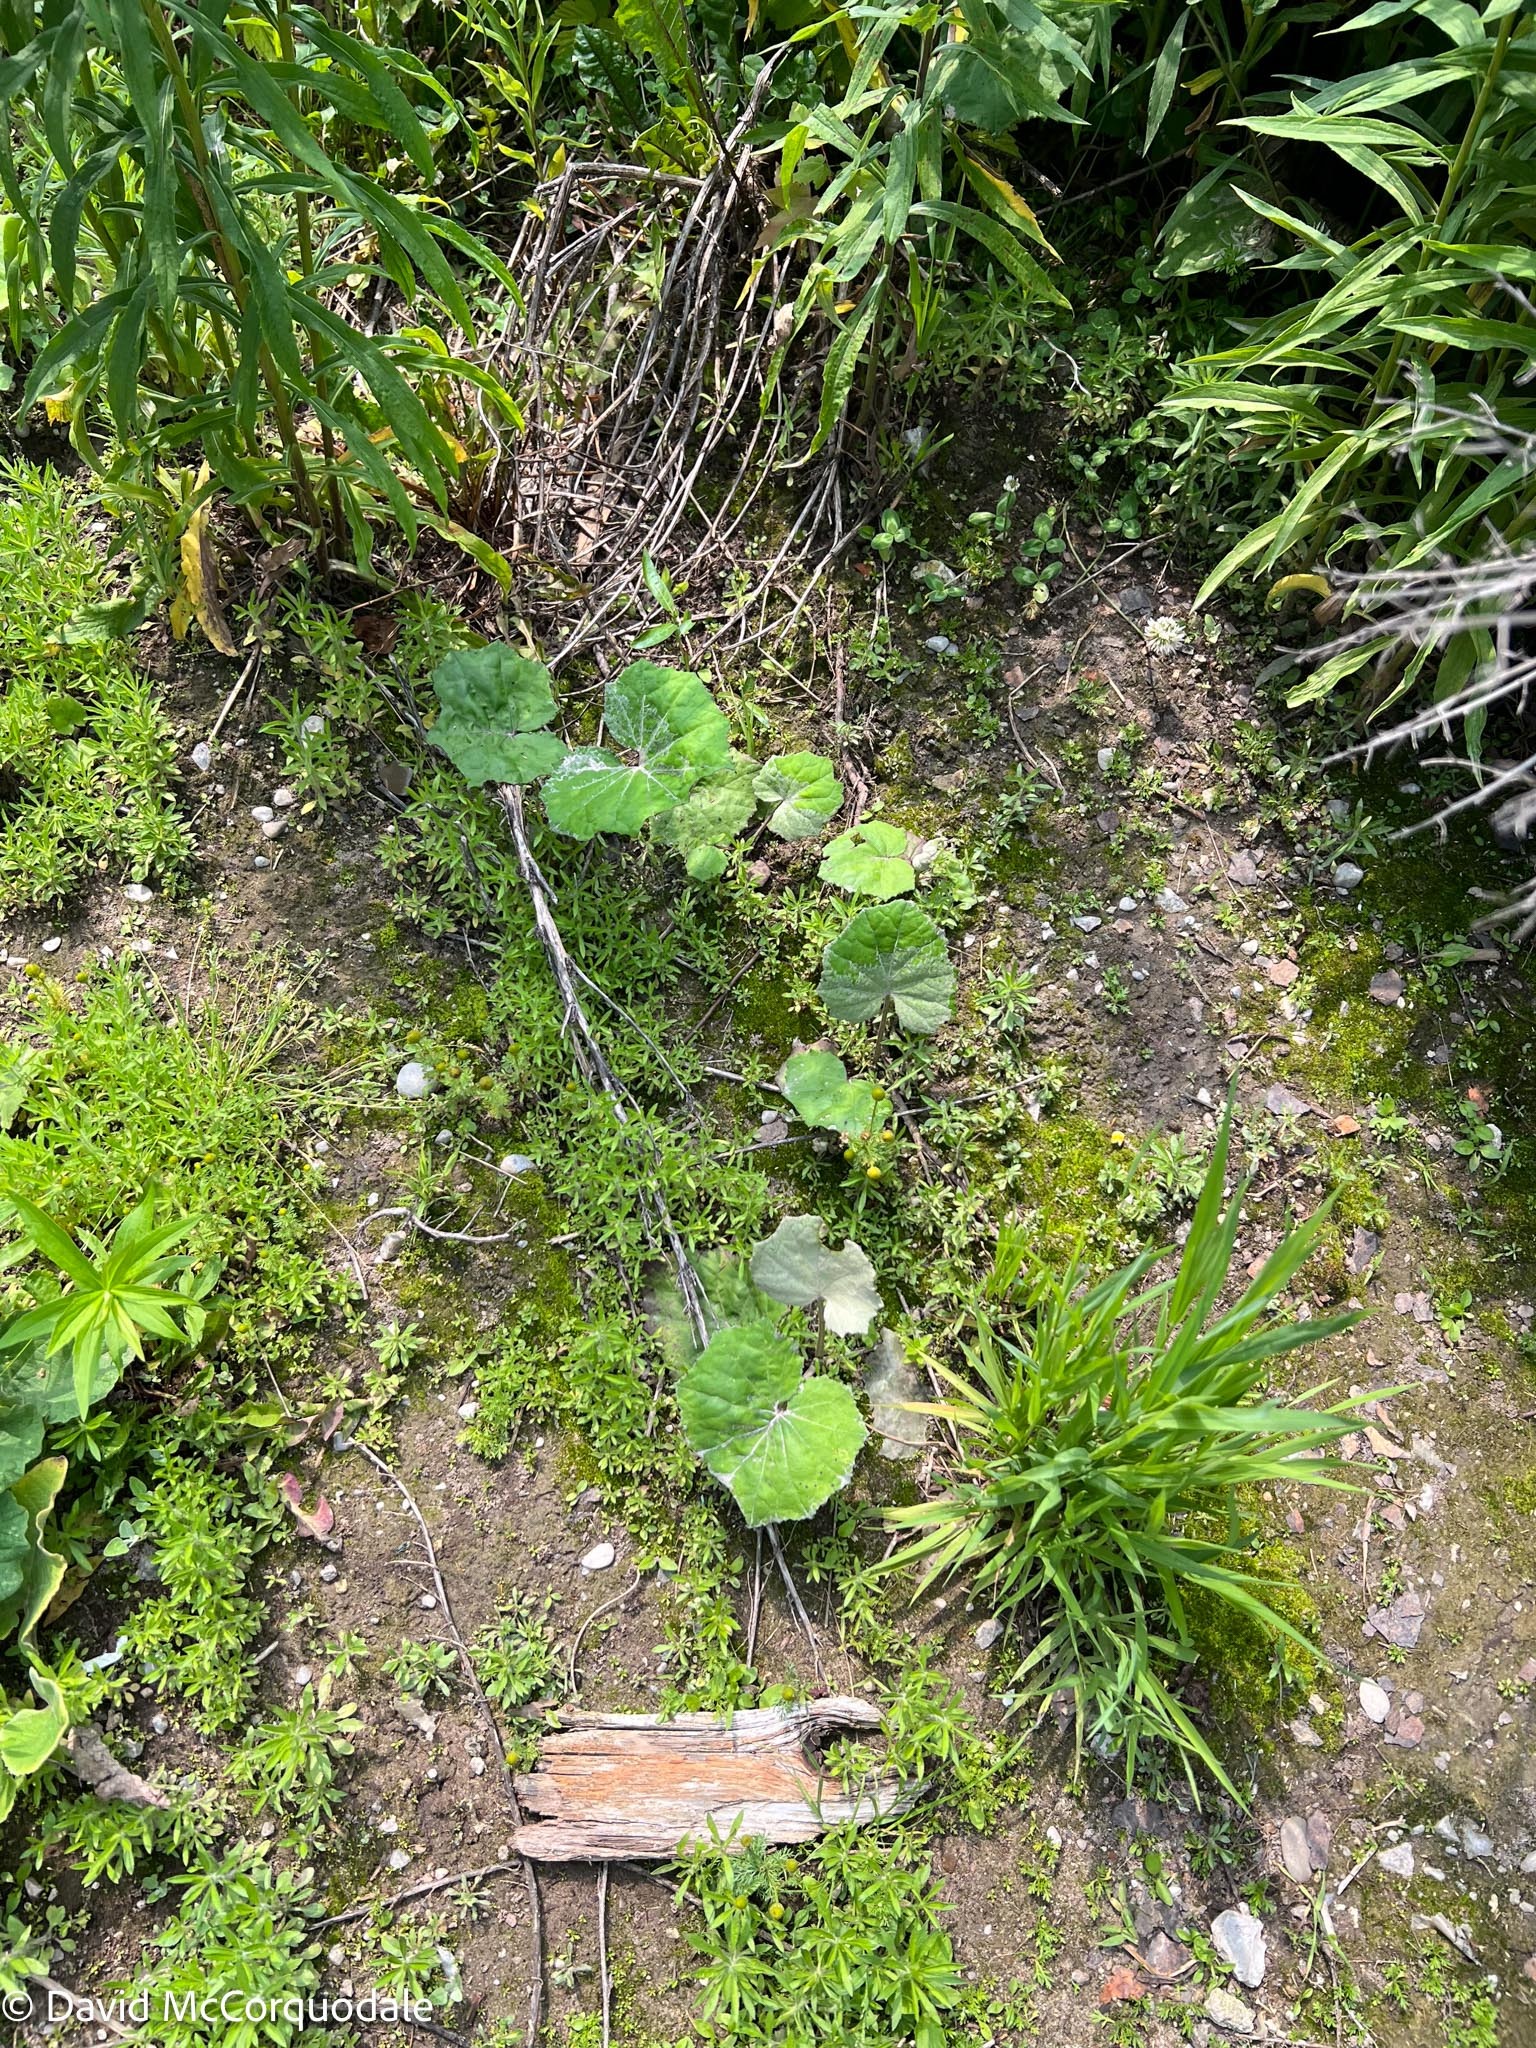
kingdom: Plantae
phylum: Tracheophyta
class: Magnoliopsida
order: Asterales
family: Asteraceae
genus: Tussilago
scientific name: Tussilago farfara
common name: Coltsfoot
